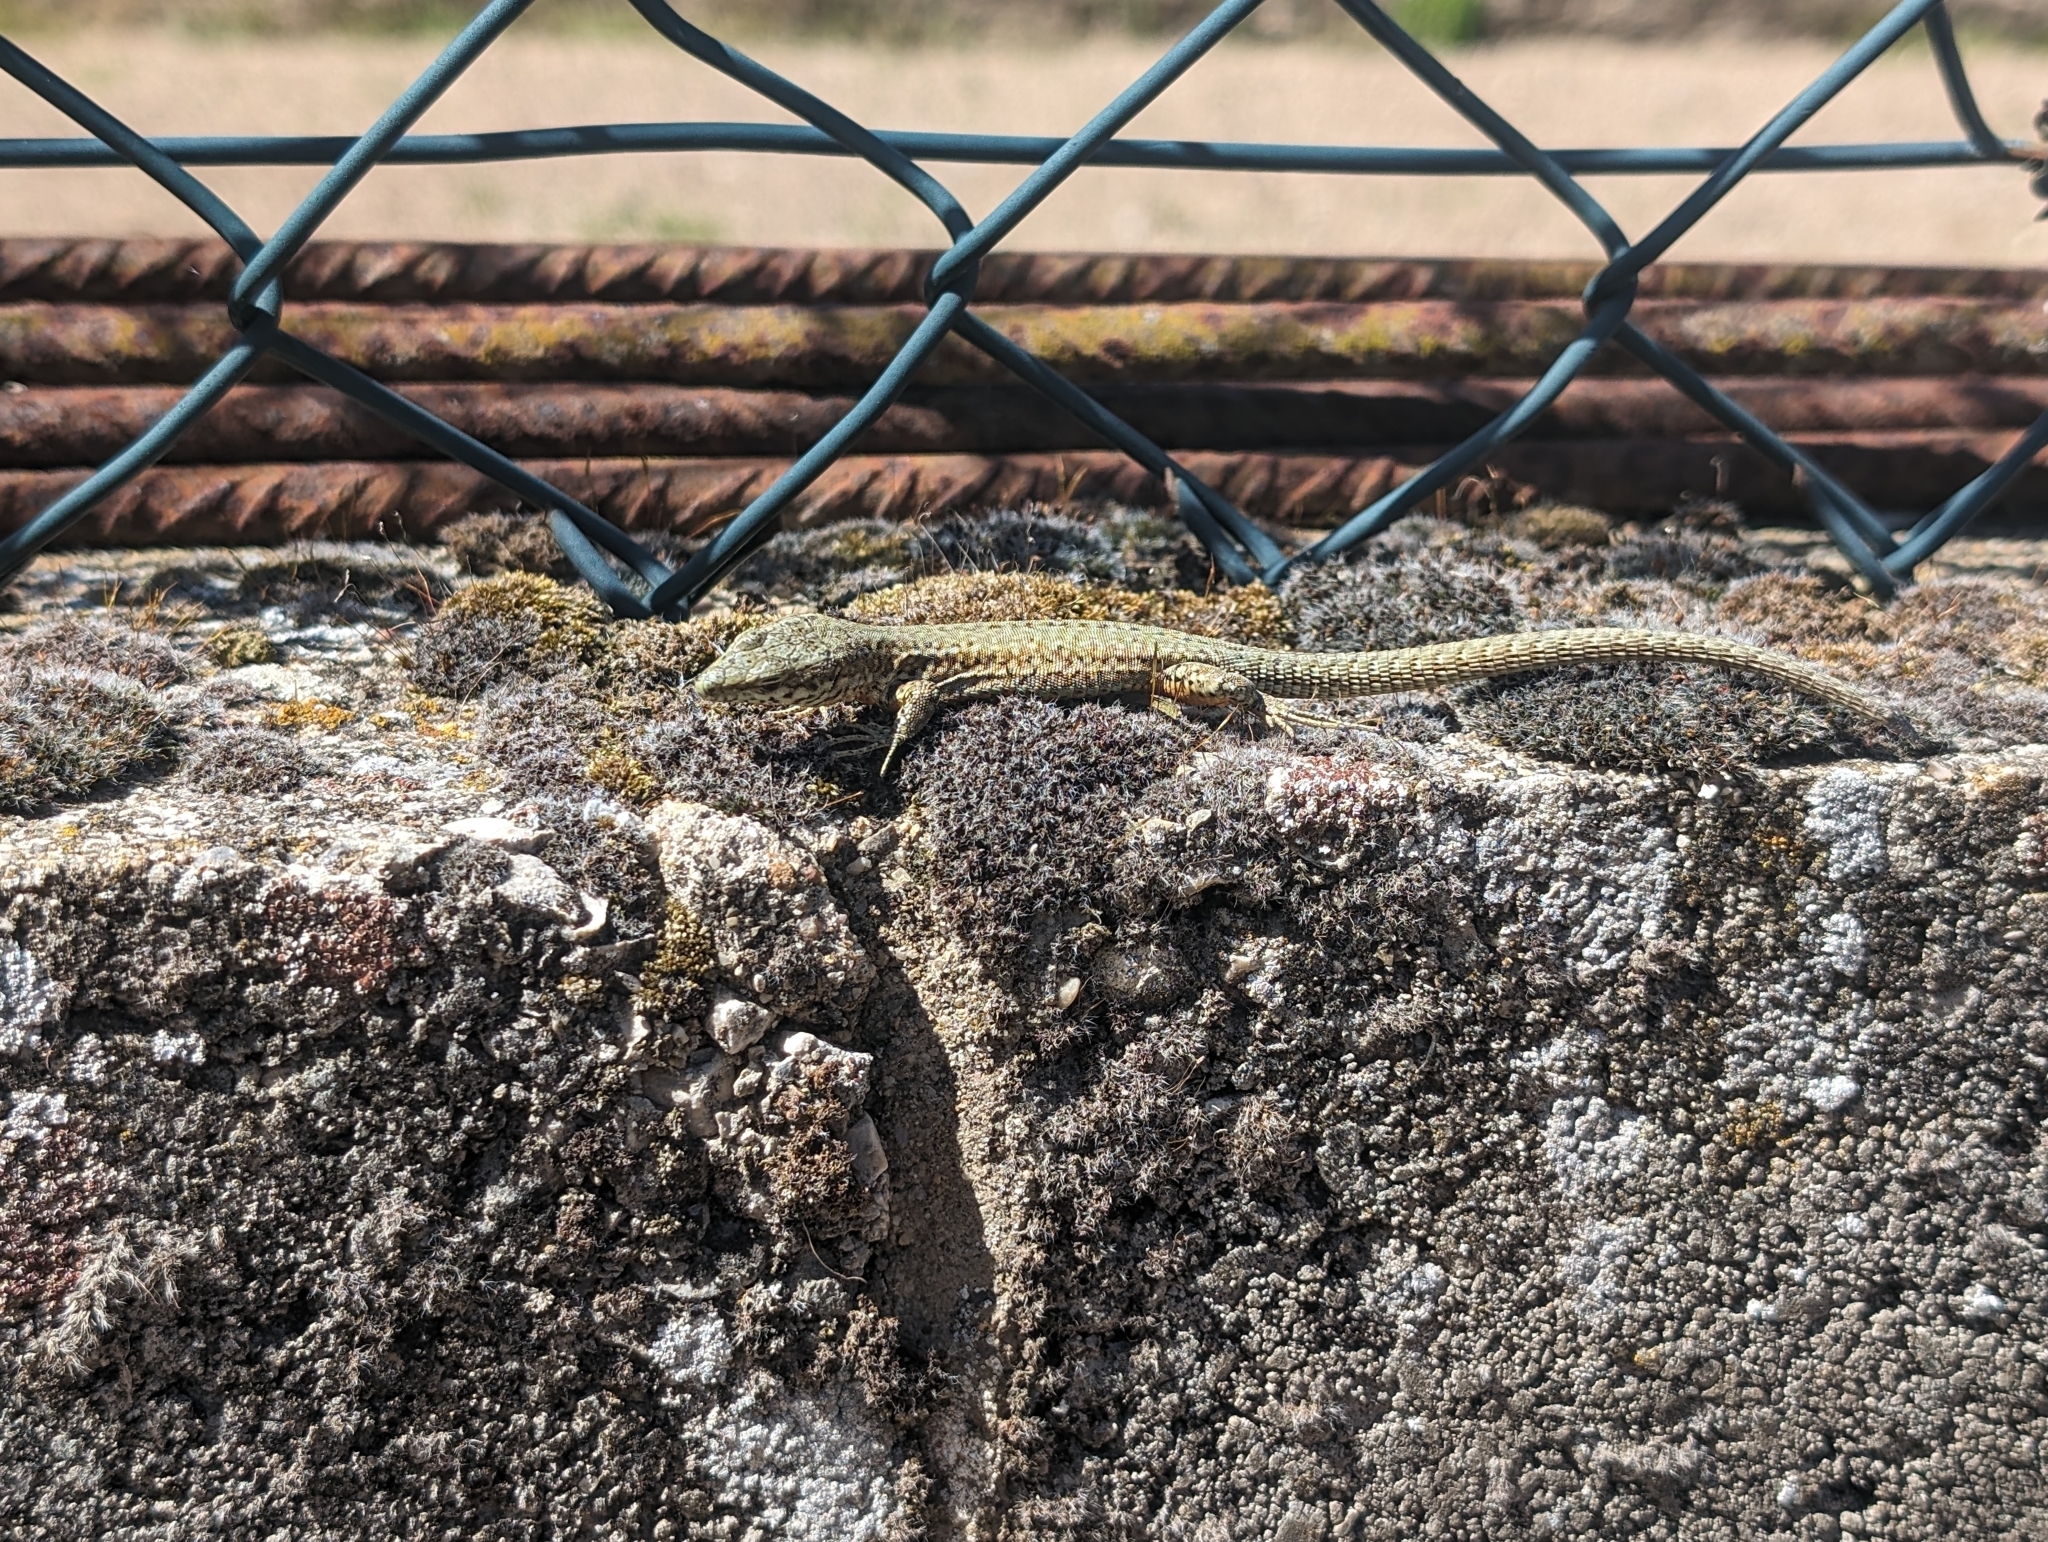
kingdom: Animalia
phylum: Chordata
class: Squamata
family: Lacertidae
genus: Podarcis
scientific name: Podarcis liolepis
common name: Catalonian wall lizard
